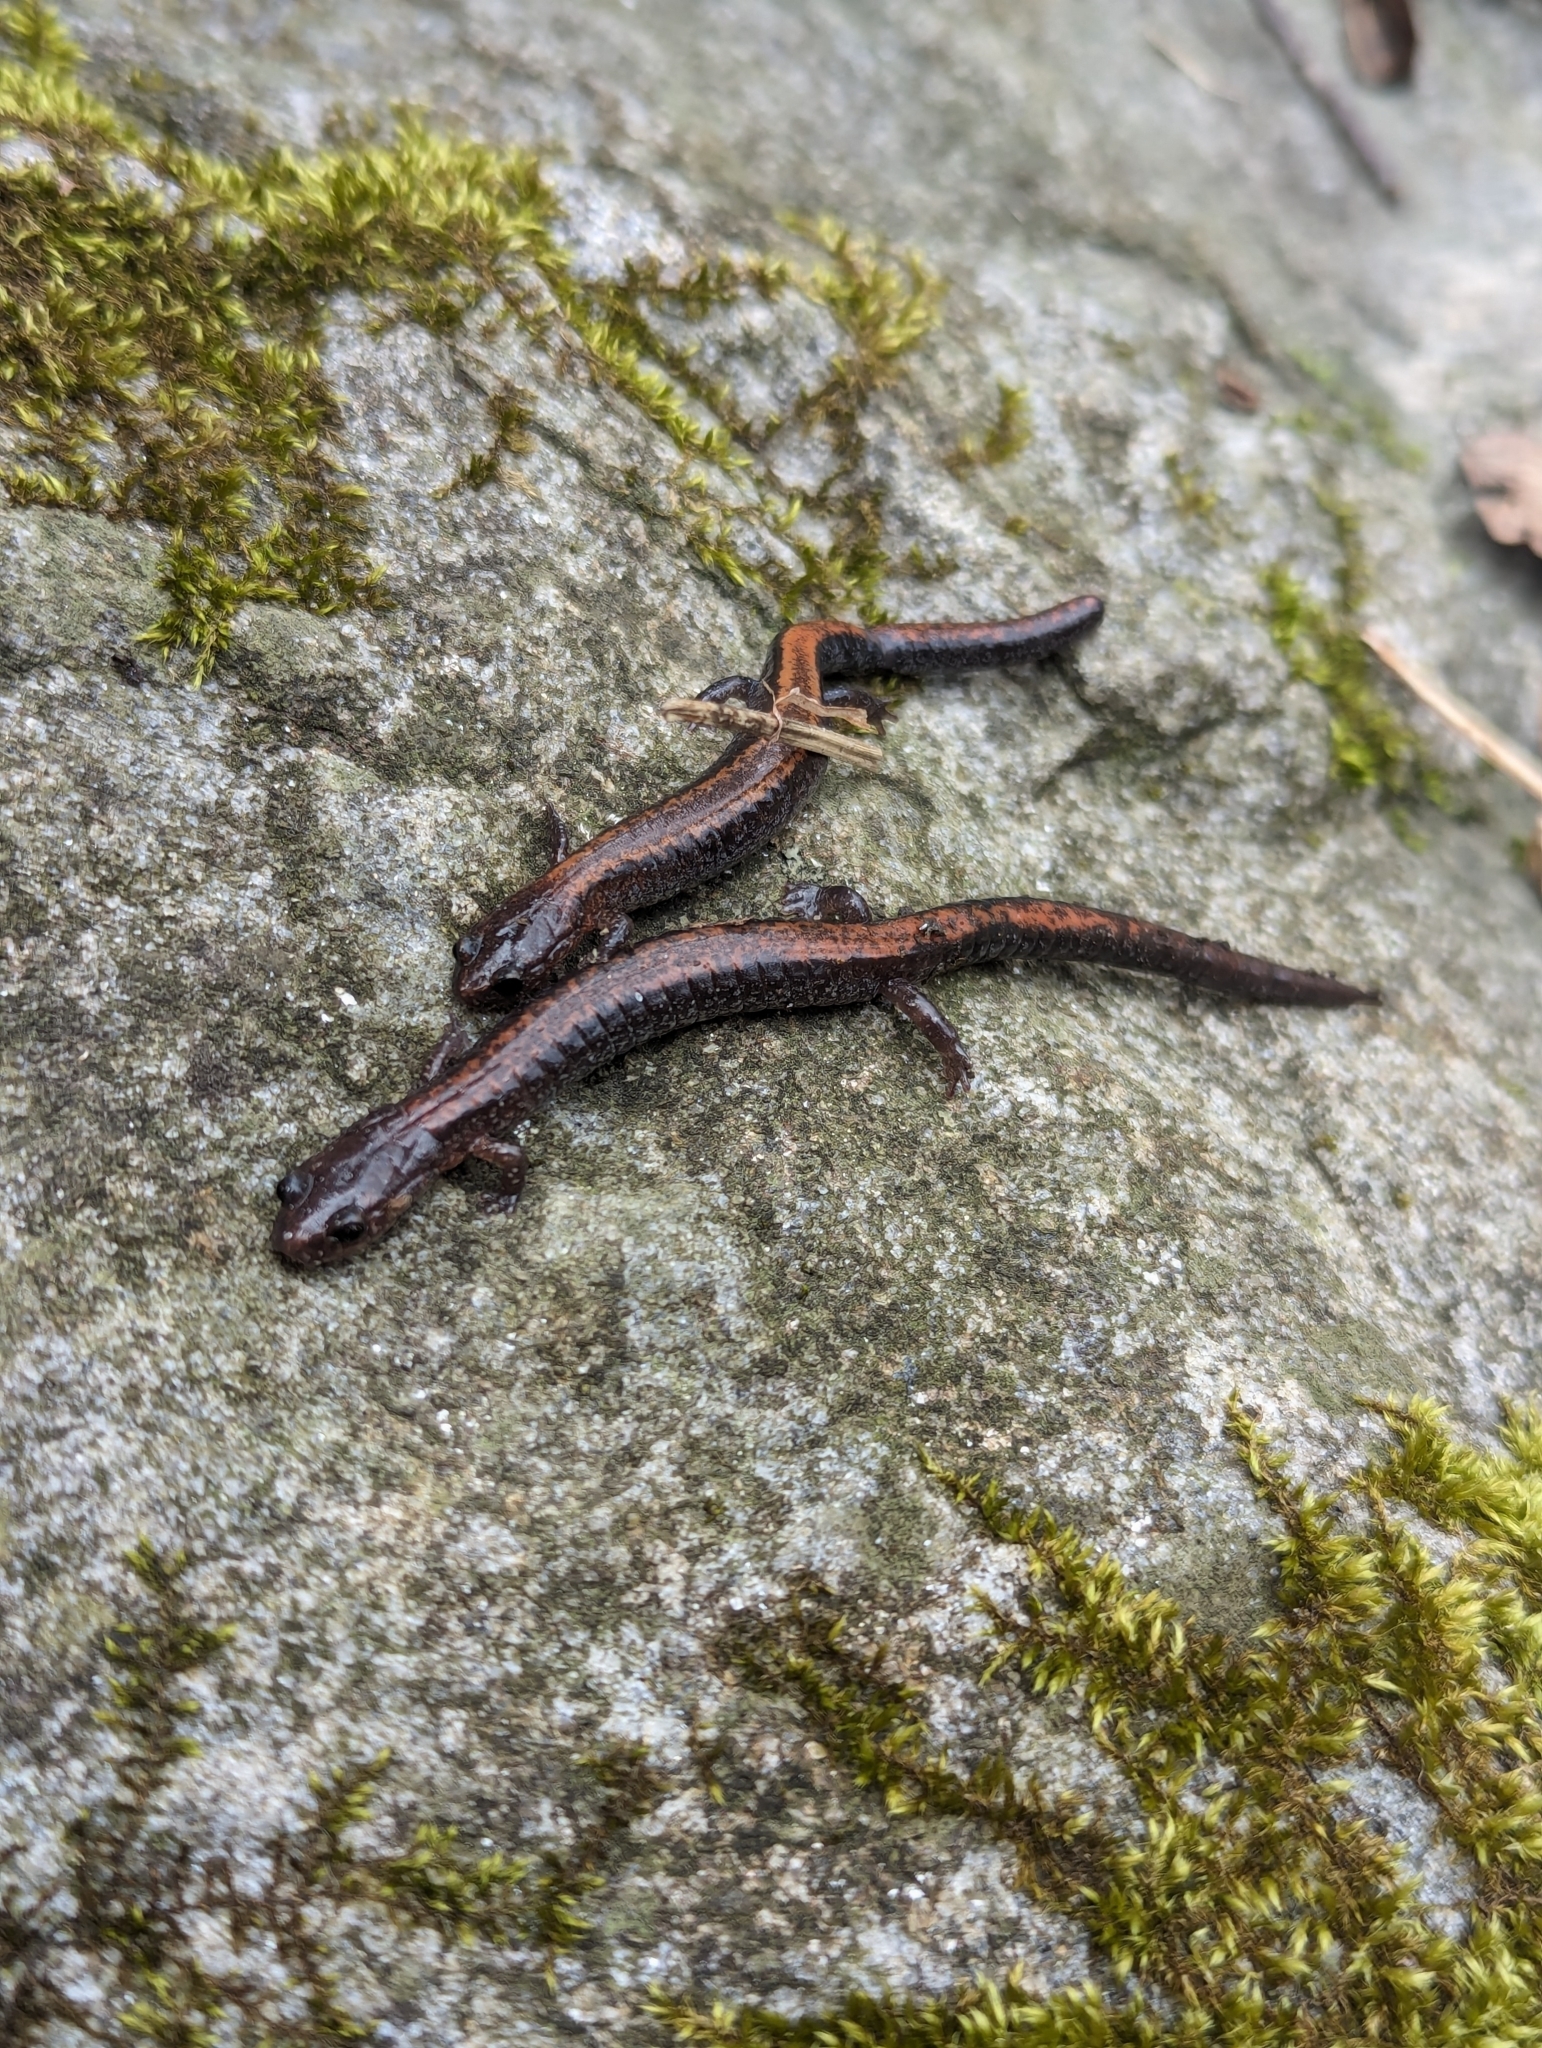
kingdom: Animalia
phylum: Chordata
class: Amphibia
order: Caudata
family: Plethodontidae
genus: Plethodon
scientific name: Plethodon cinereus
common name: Redback salamander
